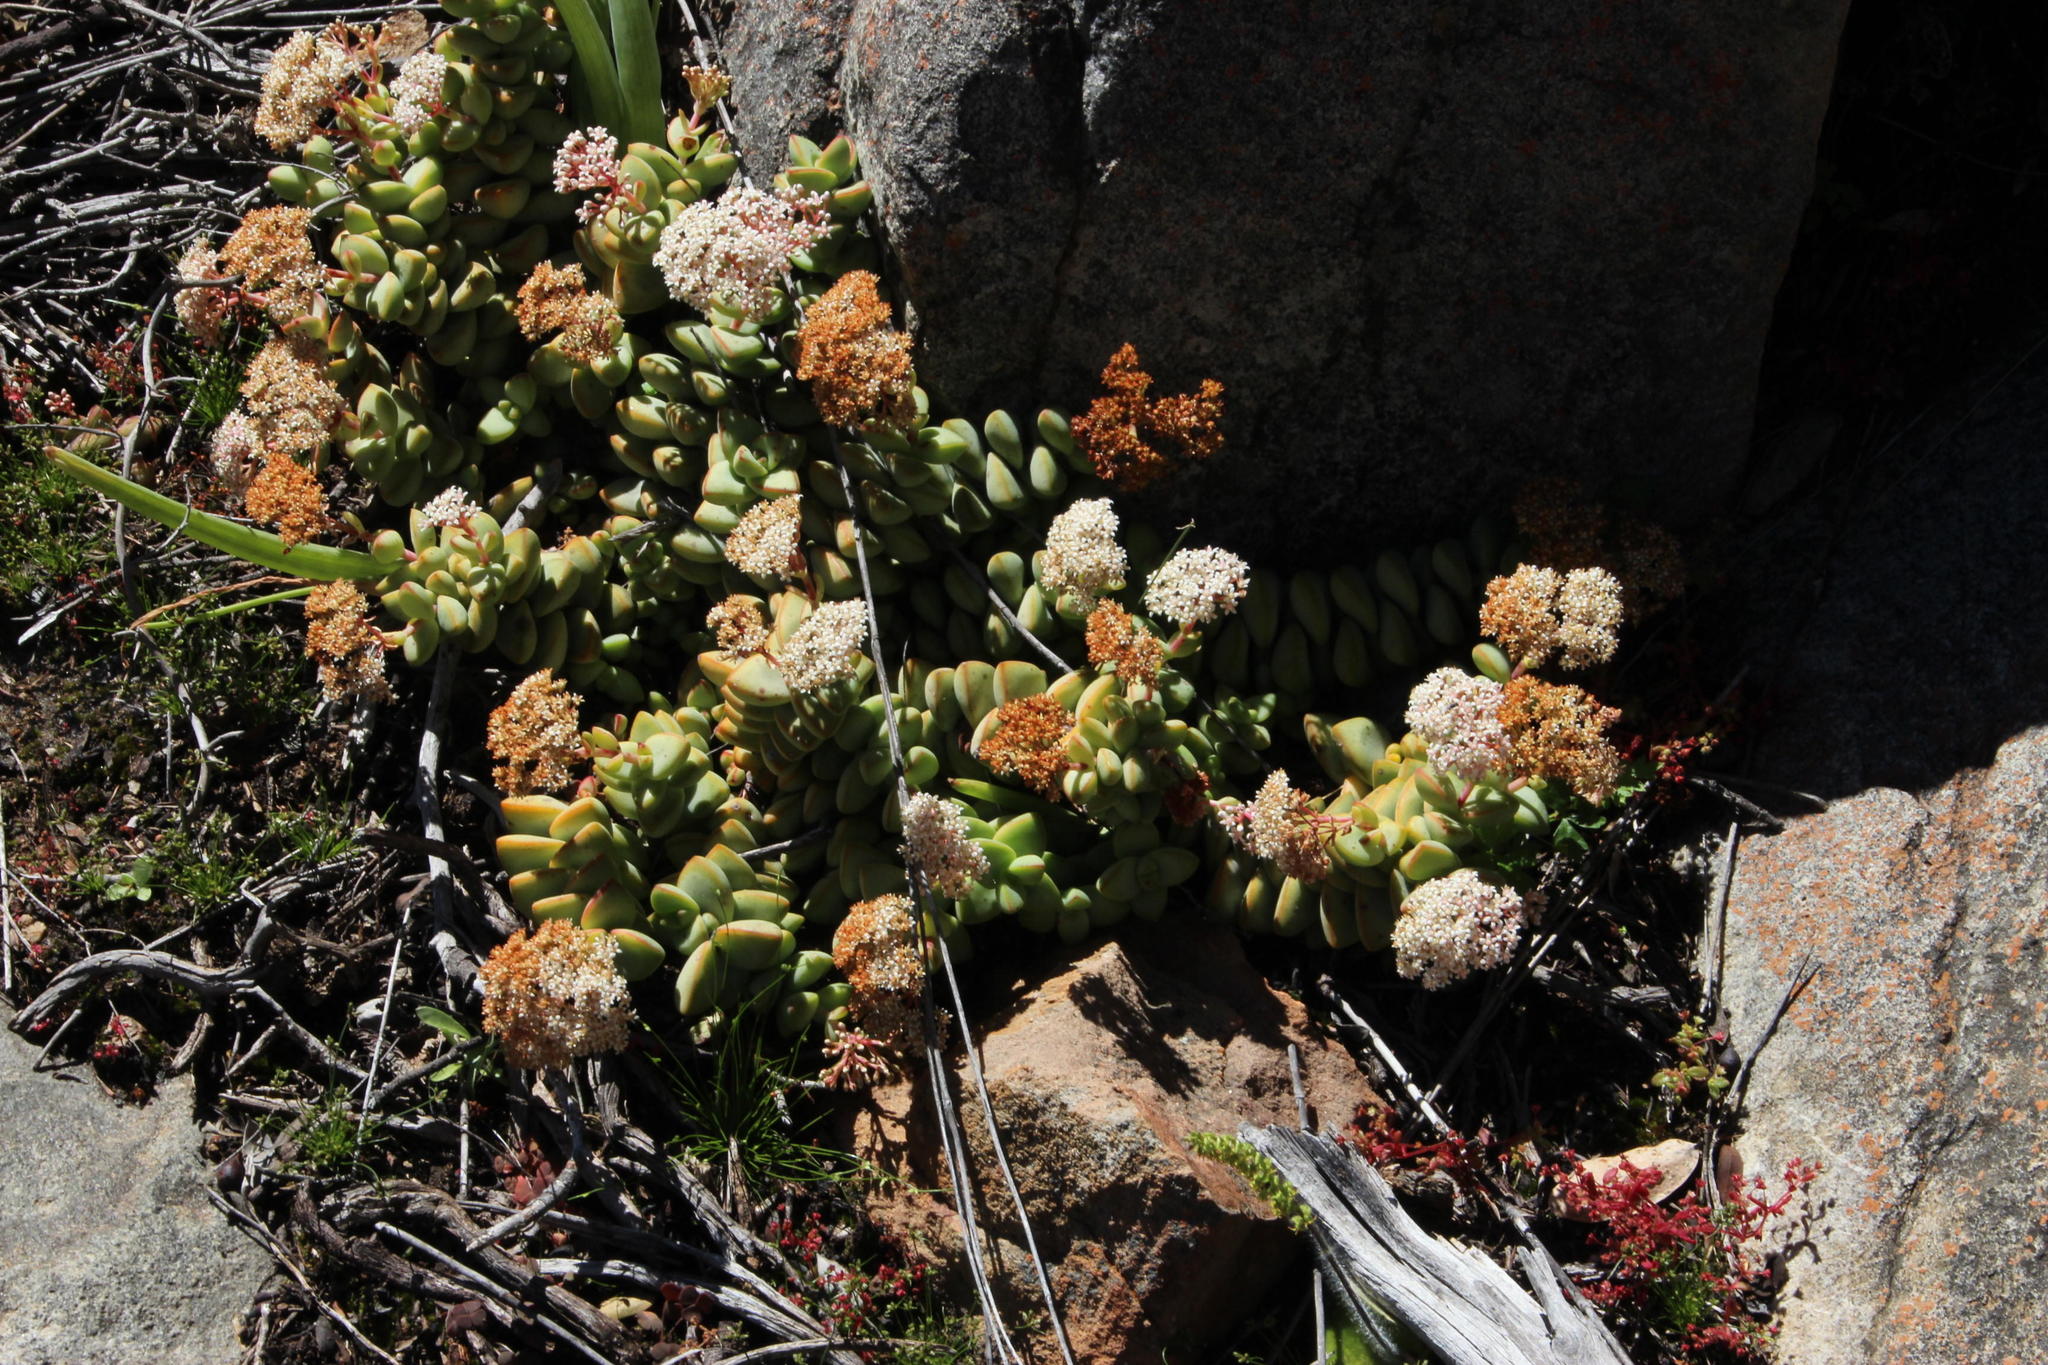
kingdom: Plantae
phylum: Tracheophyta
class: Magnoliopsida
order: Saxifragales
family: Crassulaceae
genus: Crassula
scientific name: Crassula rupestris
